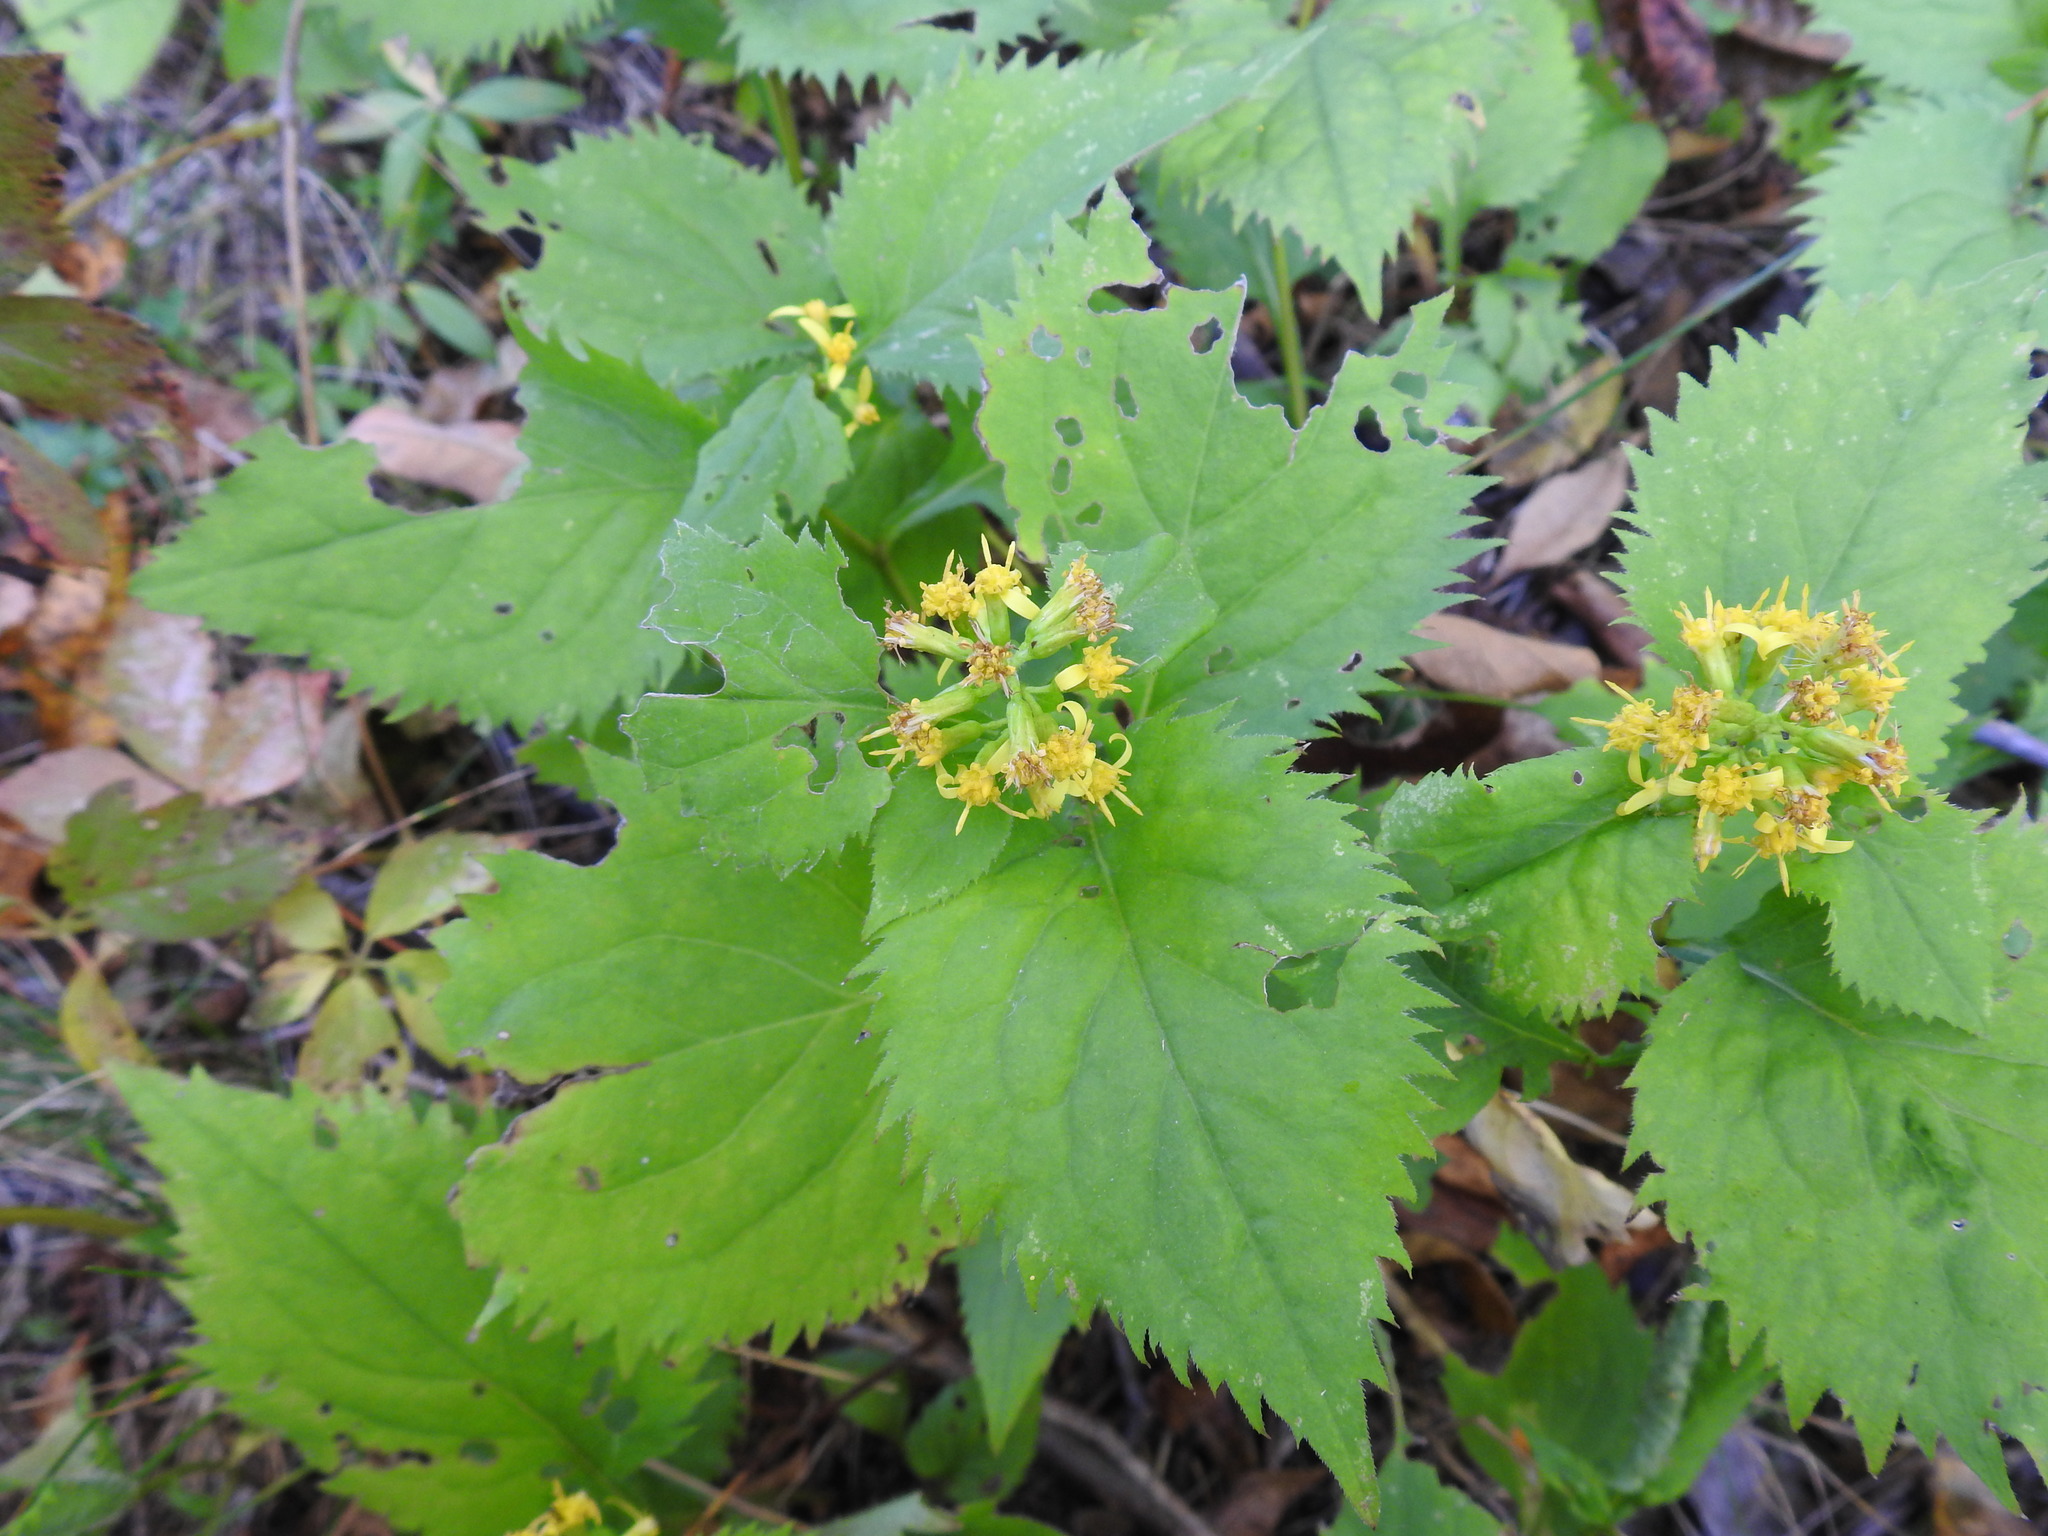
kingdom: Plantae
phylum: Tracheophyta
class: Magnoliopsida
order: Asterales
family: Asteraceae
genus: Solidago
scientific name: Solidago flexicaulis
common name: Zig-zag goldenrod
